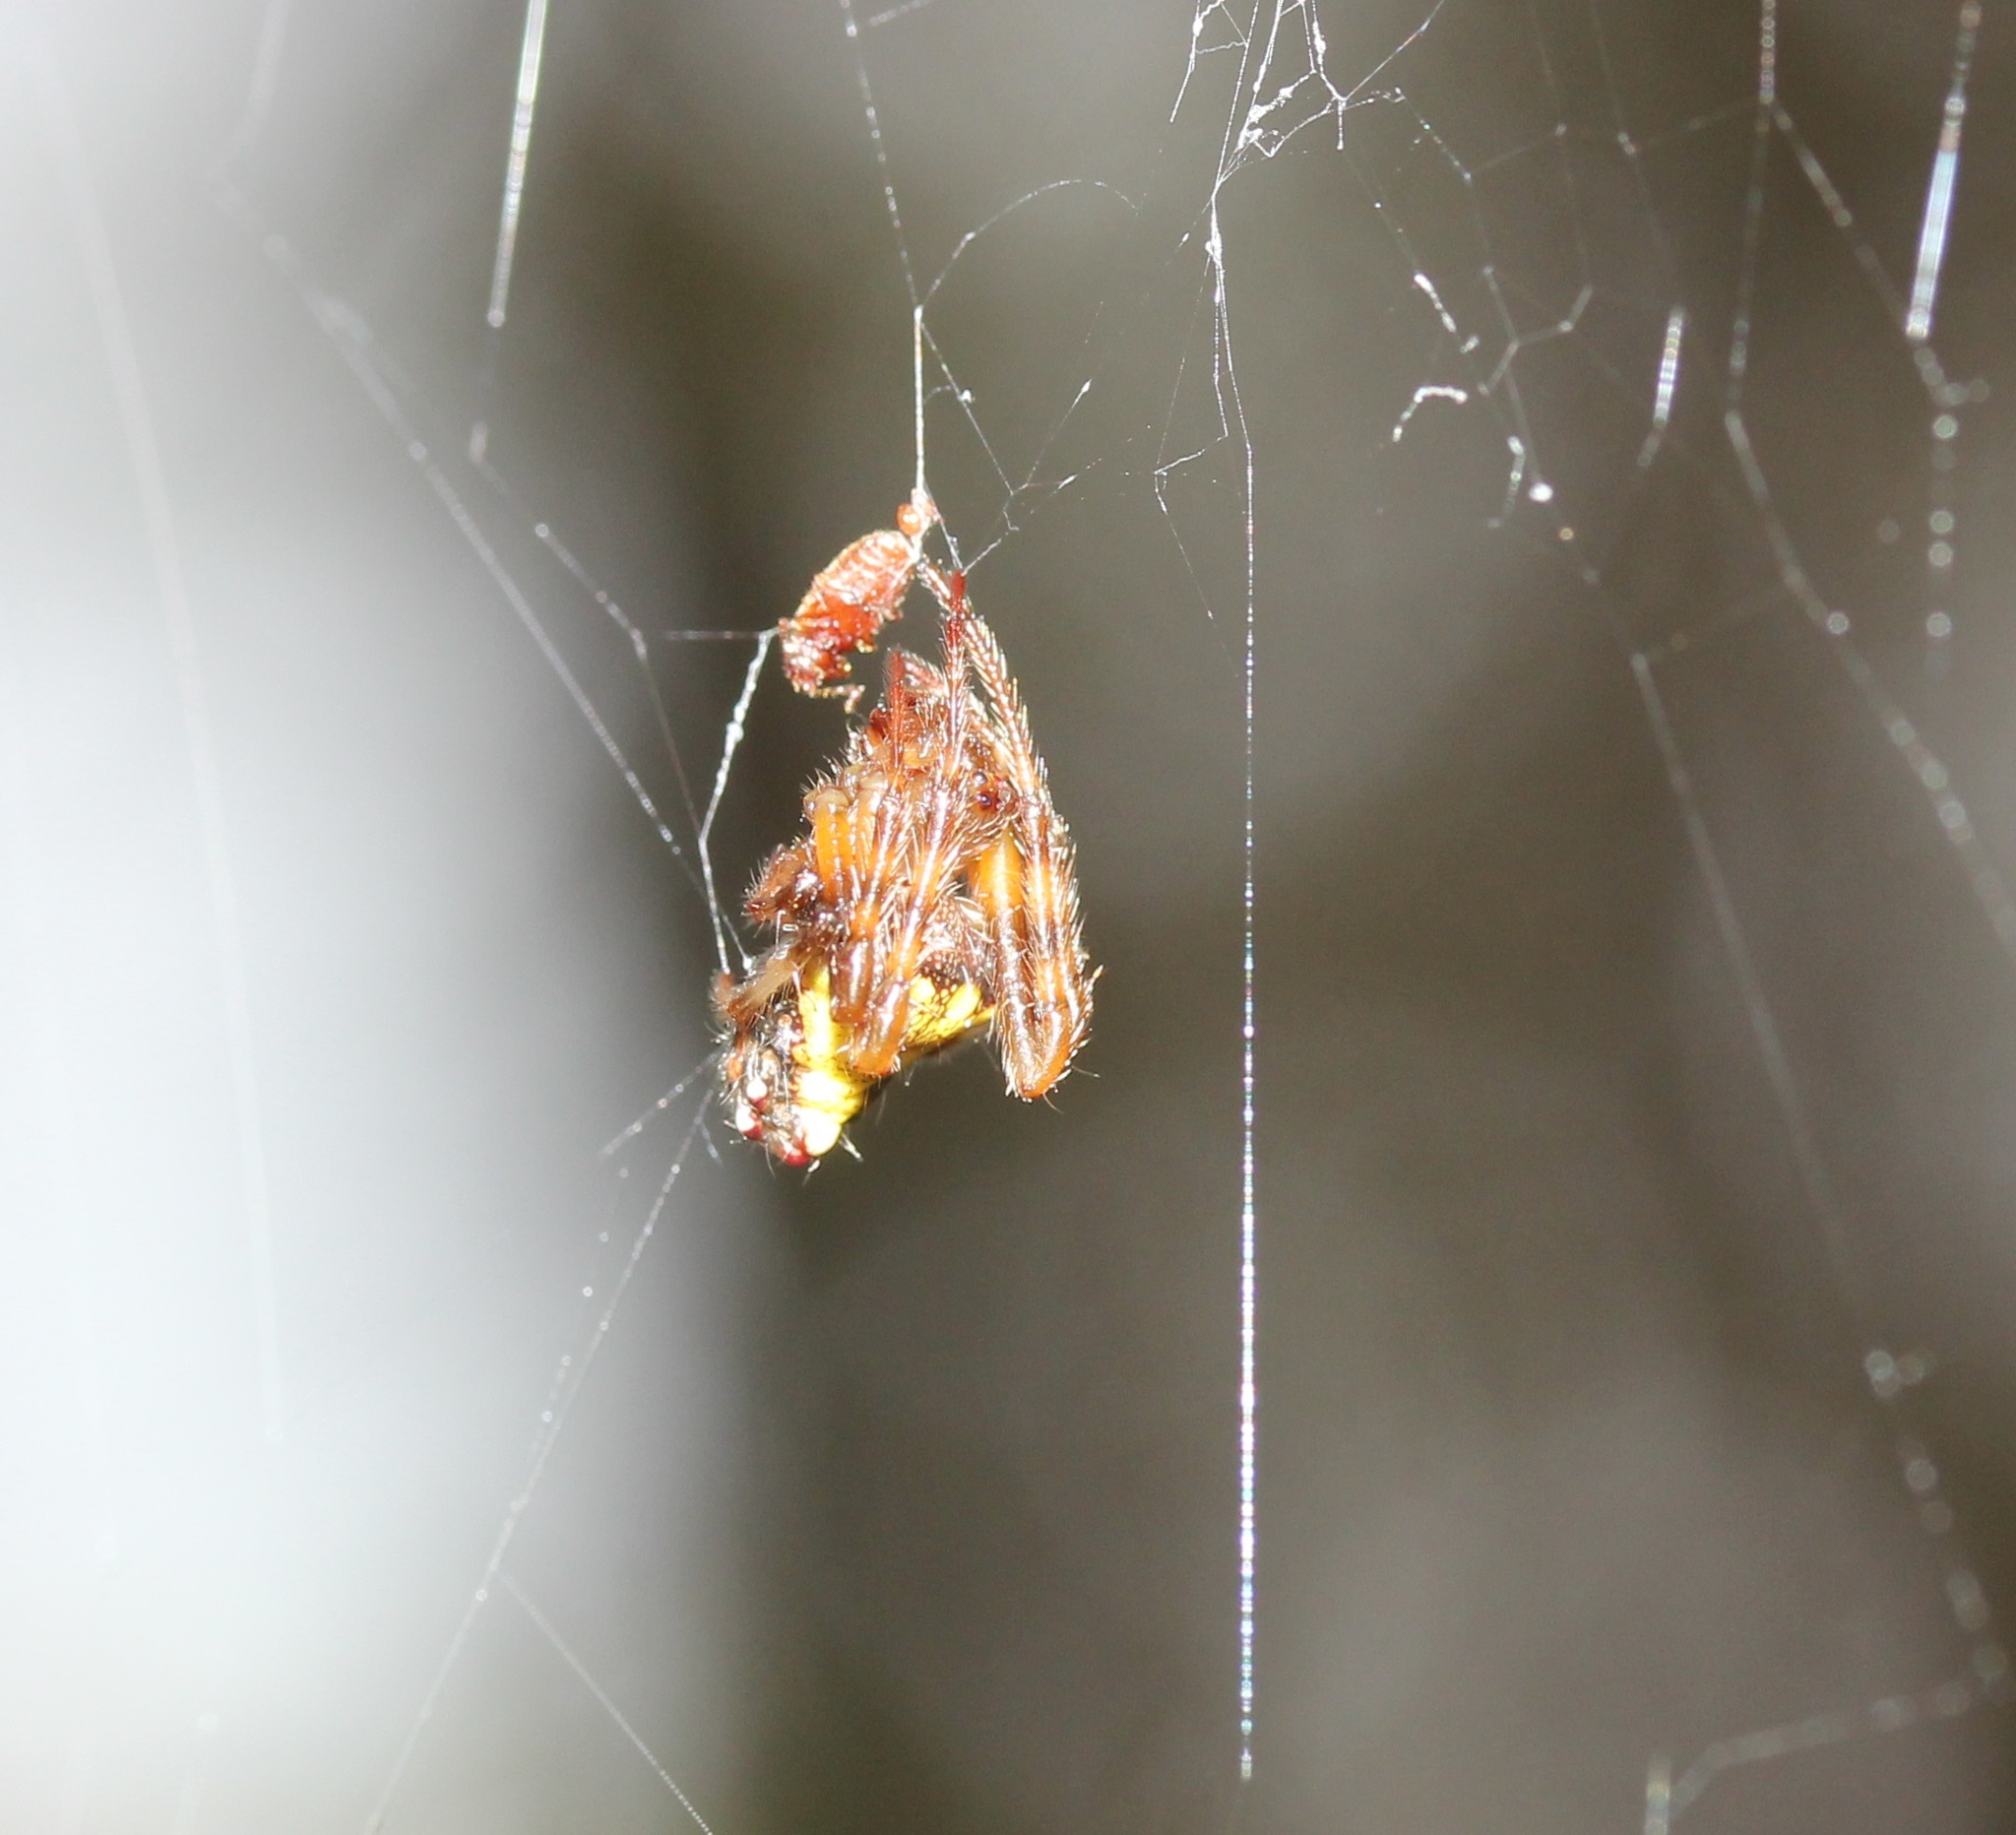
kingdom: Animalia
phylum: Arthropoda
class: Arachnida
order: Araneae
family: Araneidae
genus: Verrucosa
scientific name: Verrucosa arenata
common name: Orb weavers
